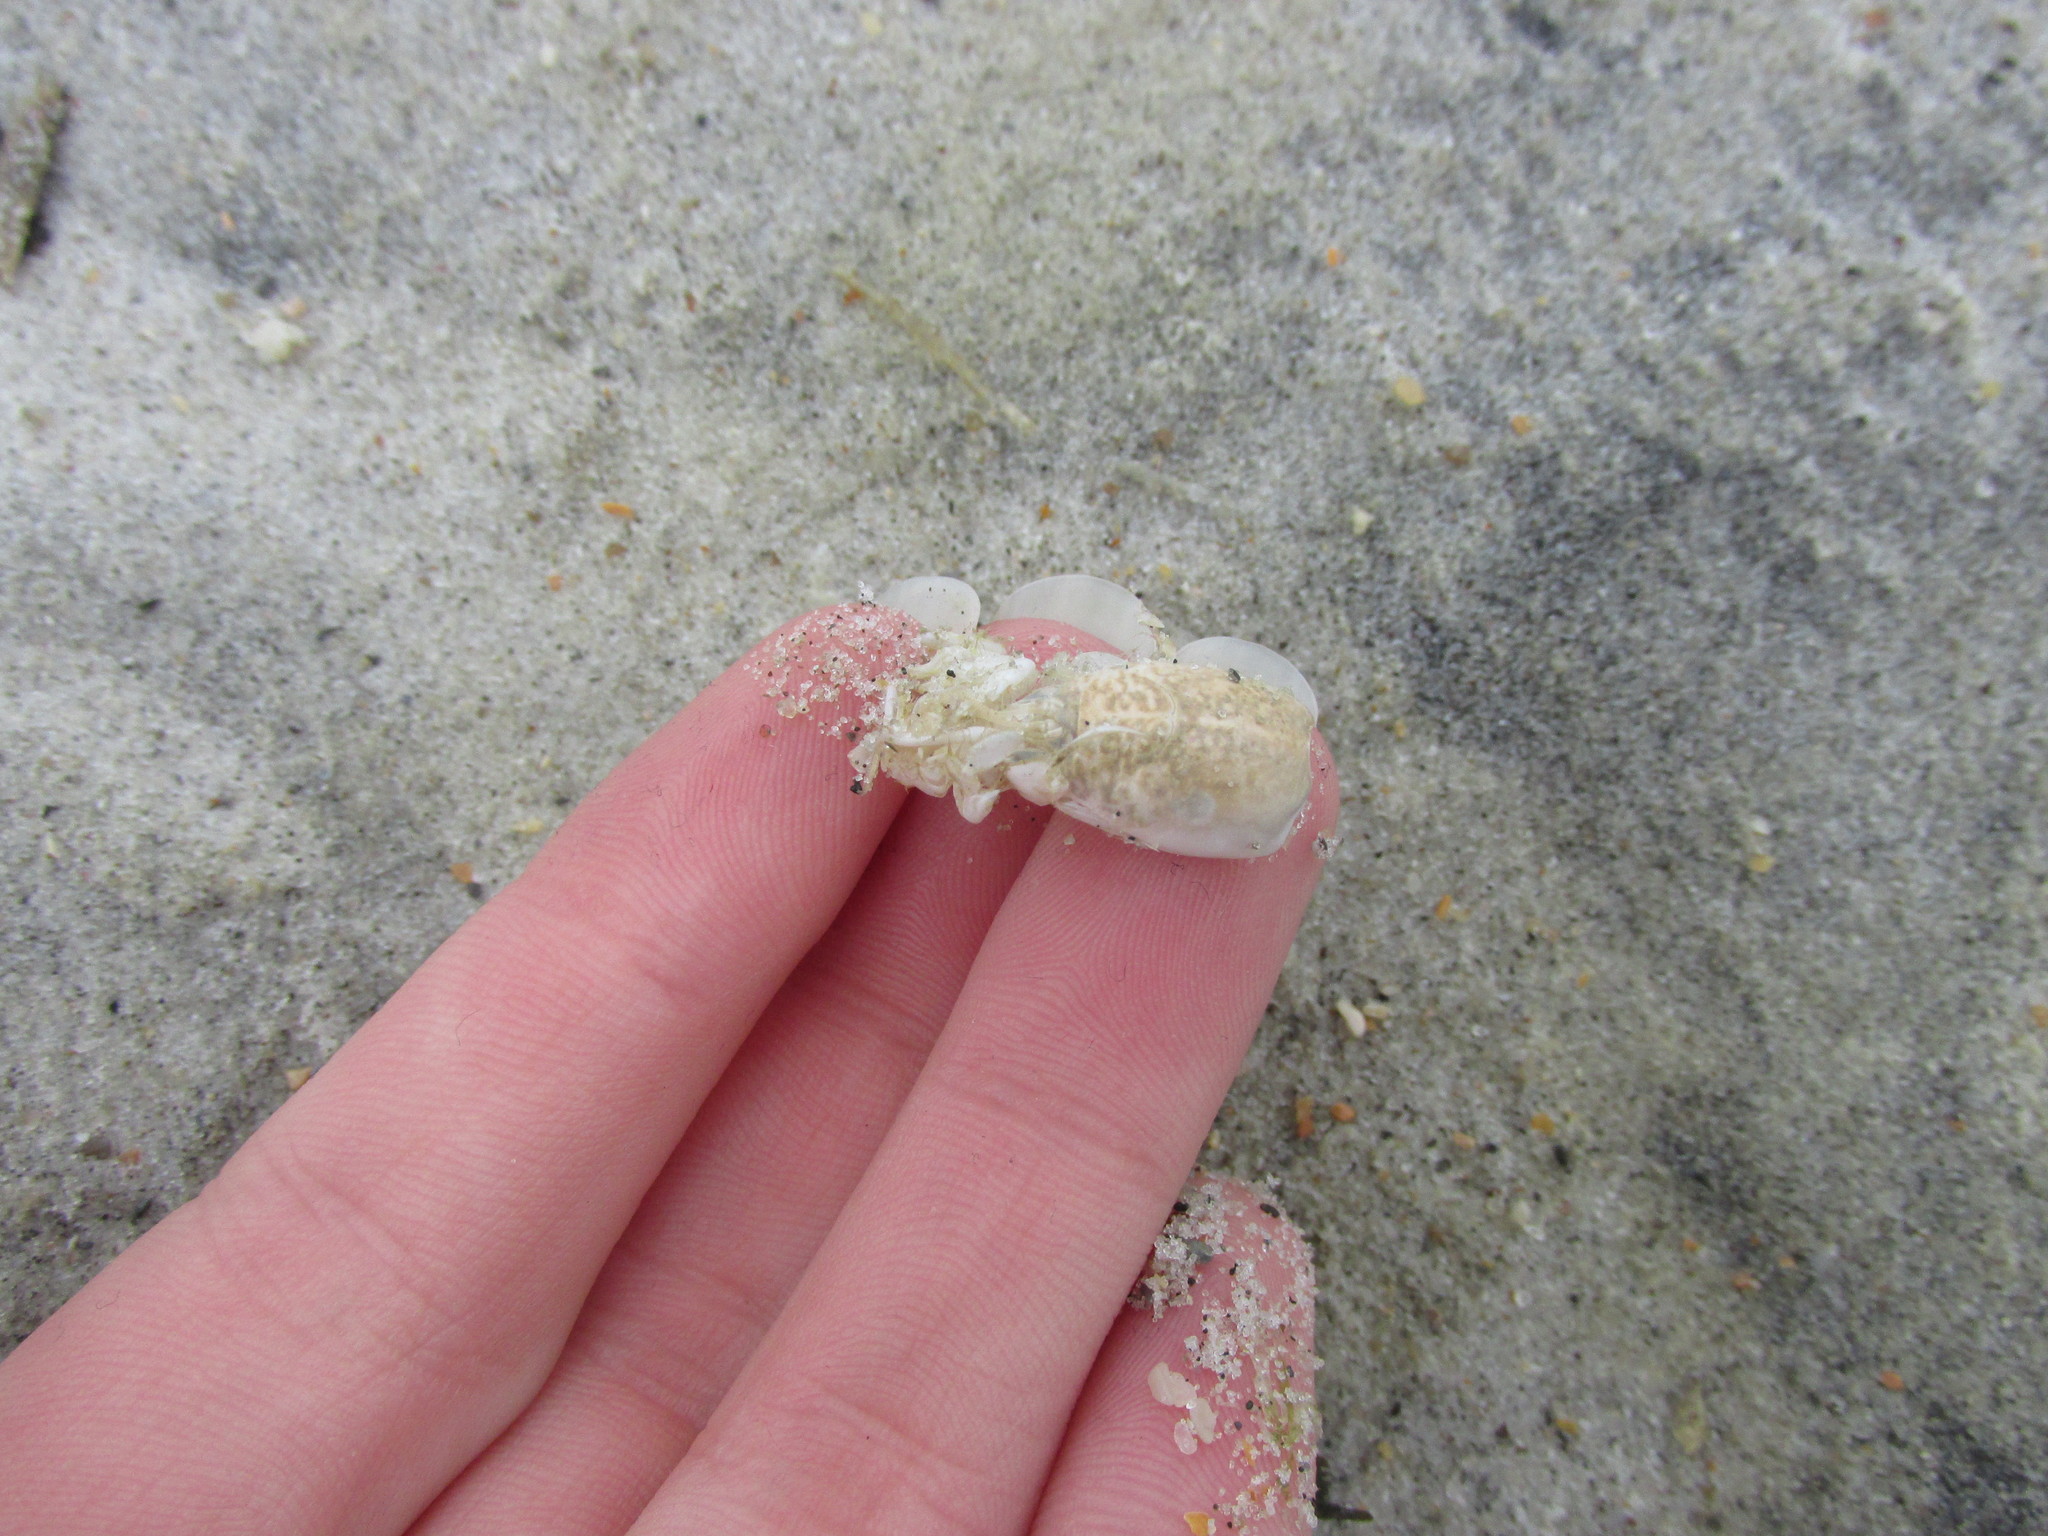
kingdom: Animalia
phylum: Arthropoda
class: Malacostraca
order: Decapoda
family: Hippidae
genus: Emerita
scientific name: Emerita talpoida
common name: Atlantic sand crab
